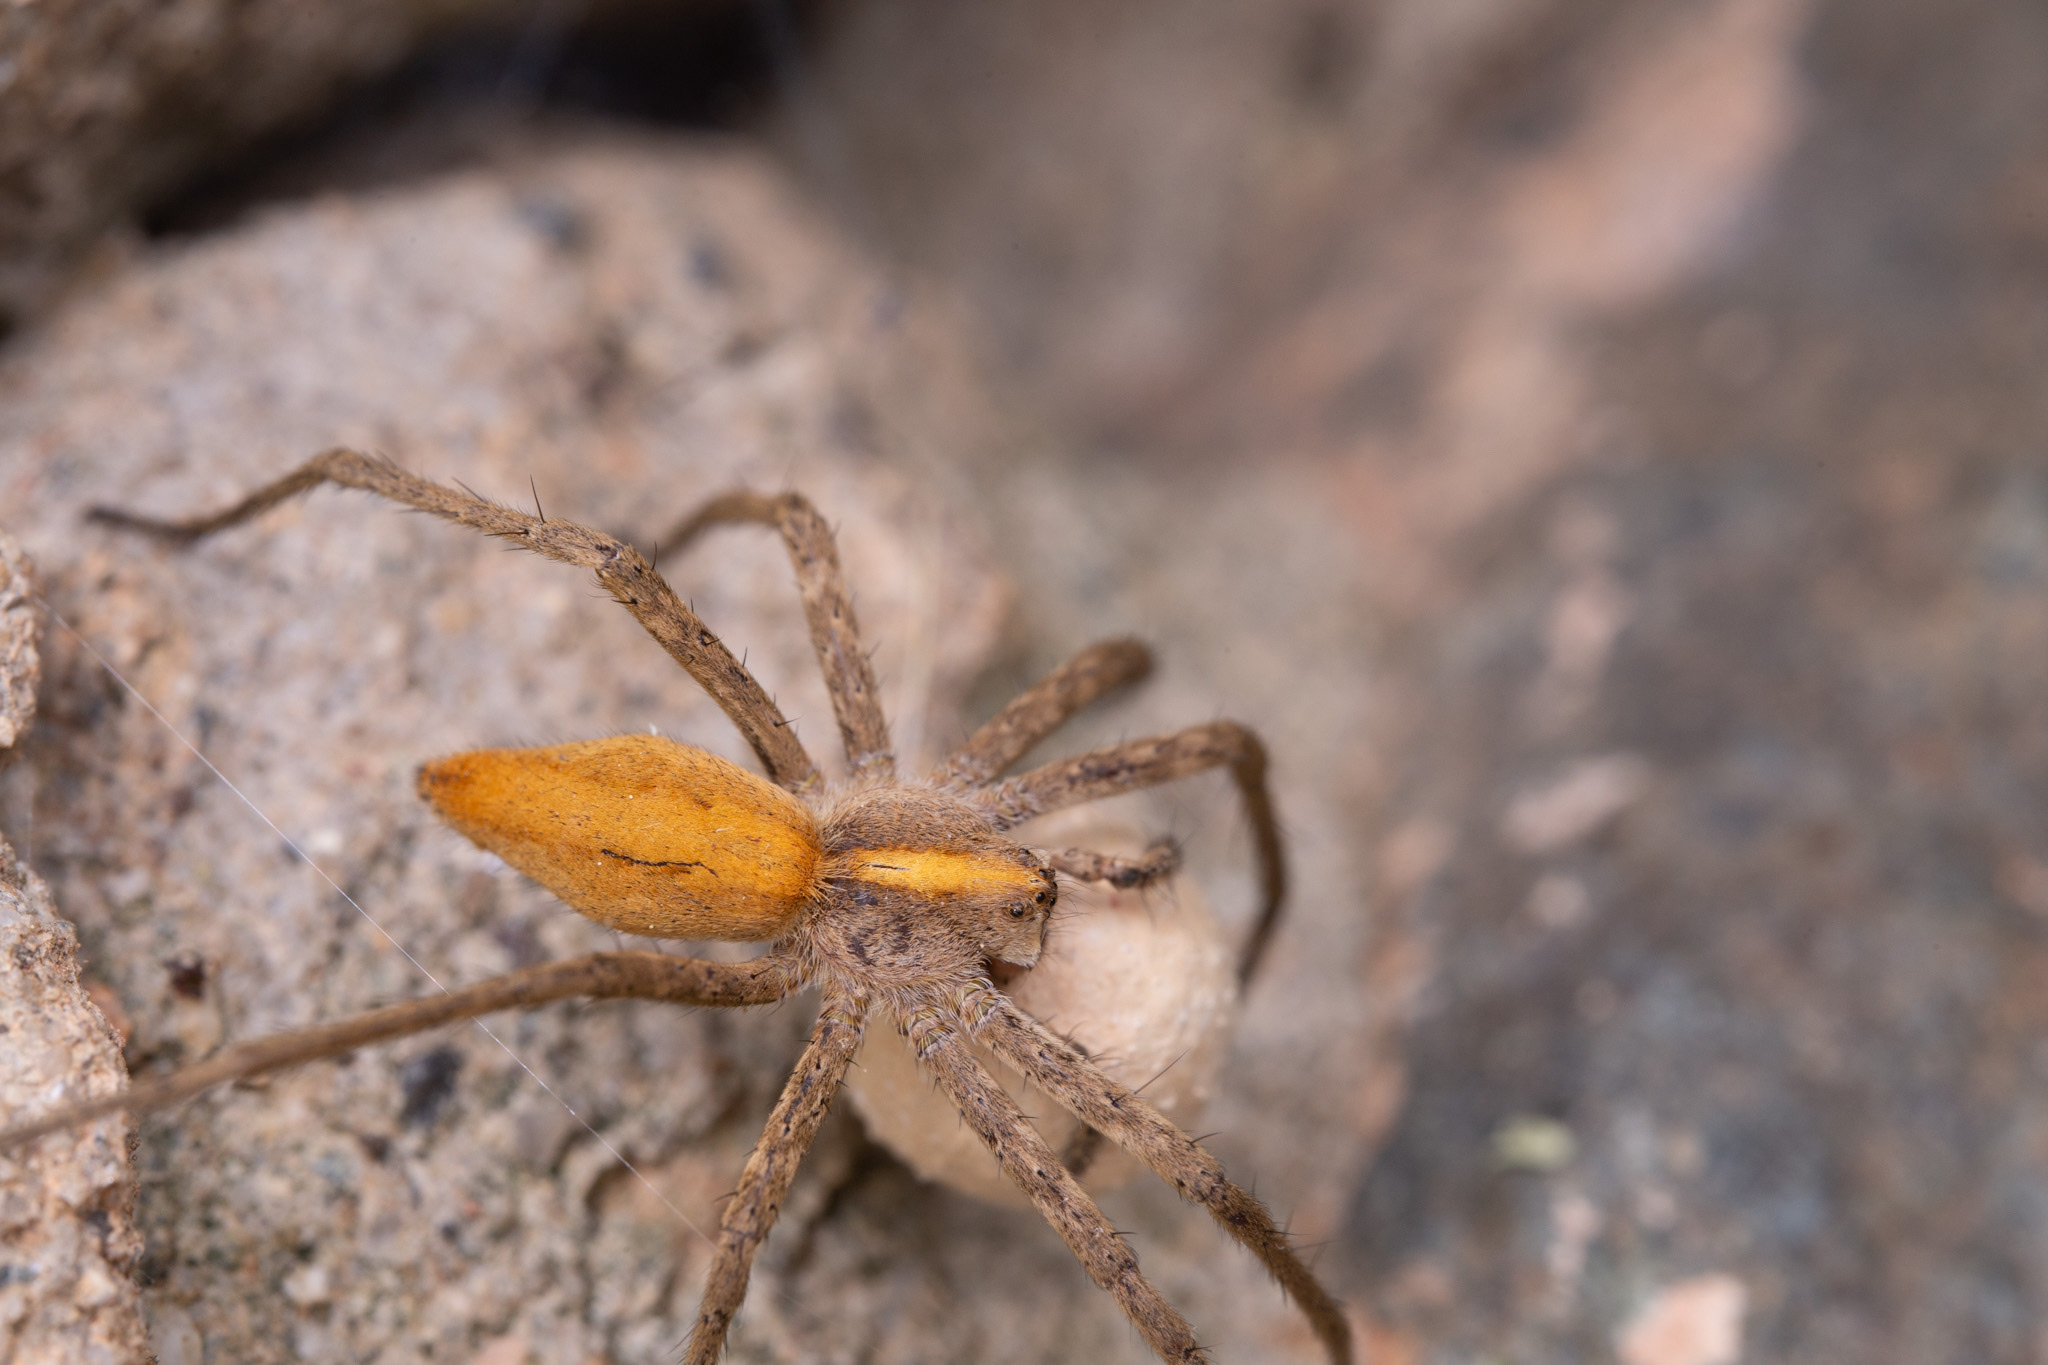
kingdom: Animalia
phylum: Arthropoda
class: Arachnida
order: Araneae
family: Pisauridae
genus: Pisaura
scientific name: Pisaura
